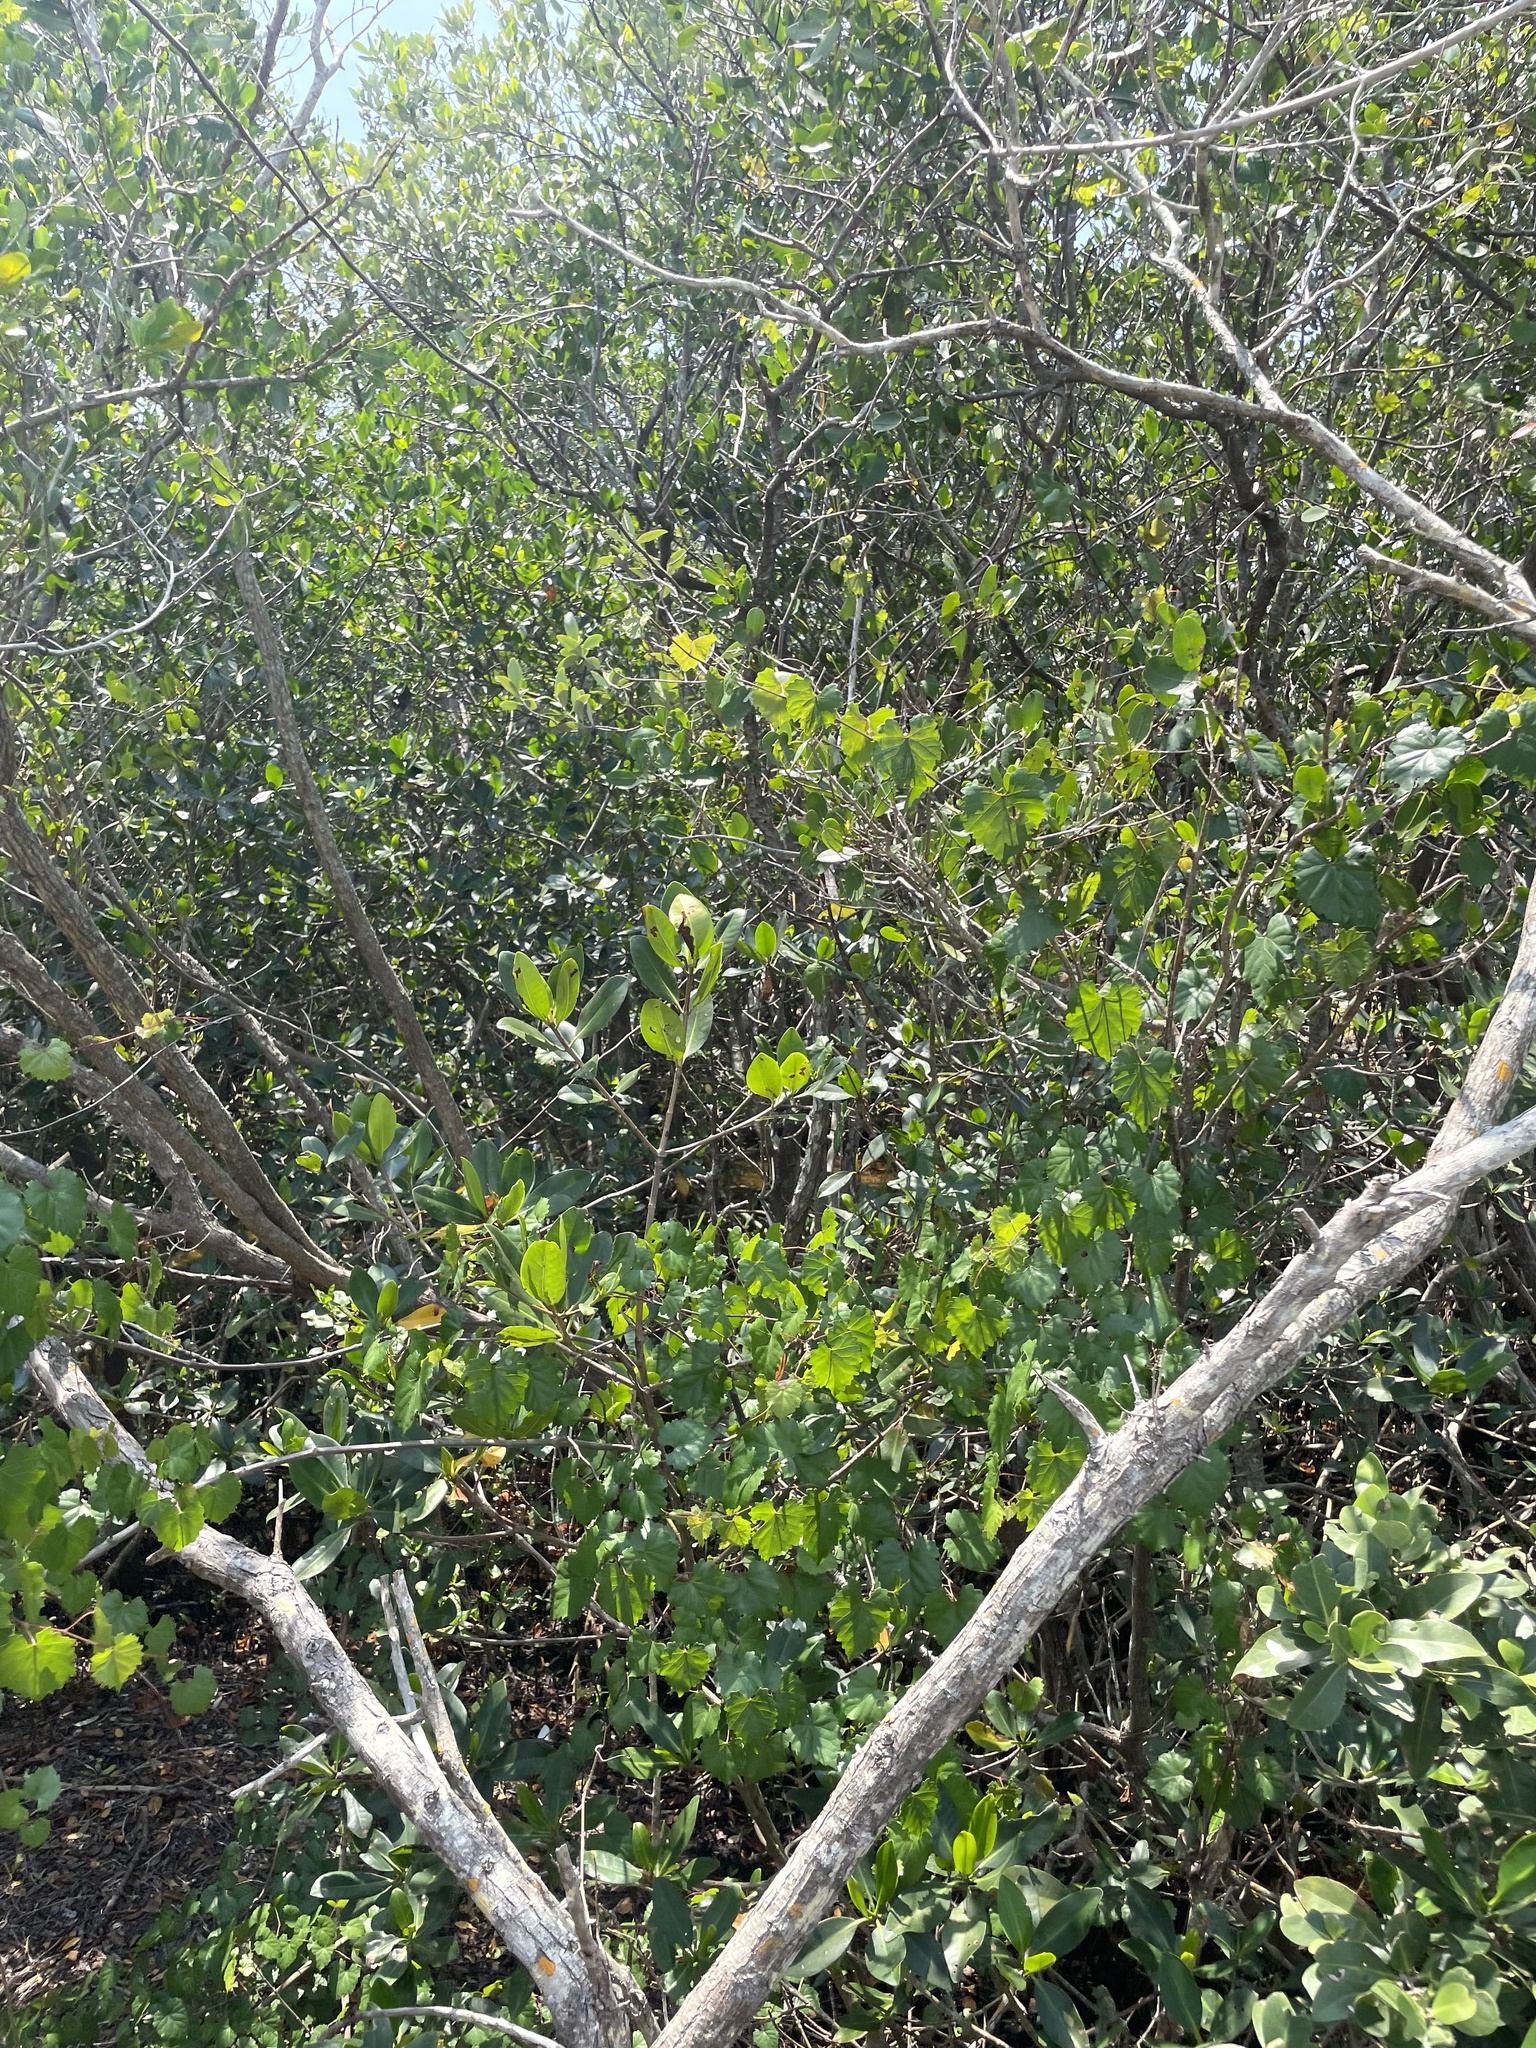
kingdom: Plantae
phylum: Tracheophyta
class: Magnoliopsida
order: Malpighiales
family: Rhizophoraceae
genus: Rhizophora
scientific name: Rhizophora mangle
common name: Red mangrove
